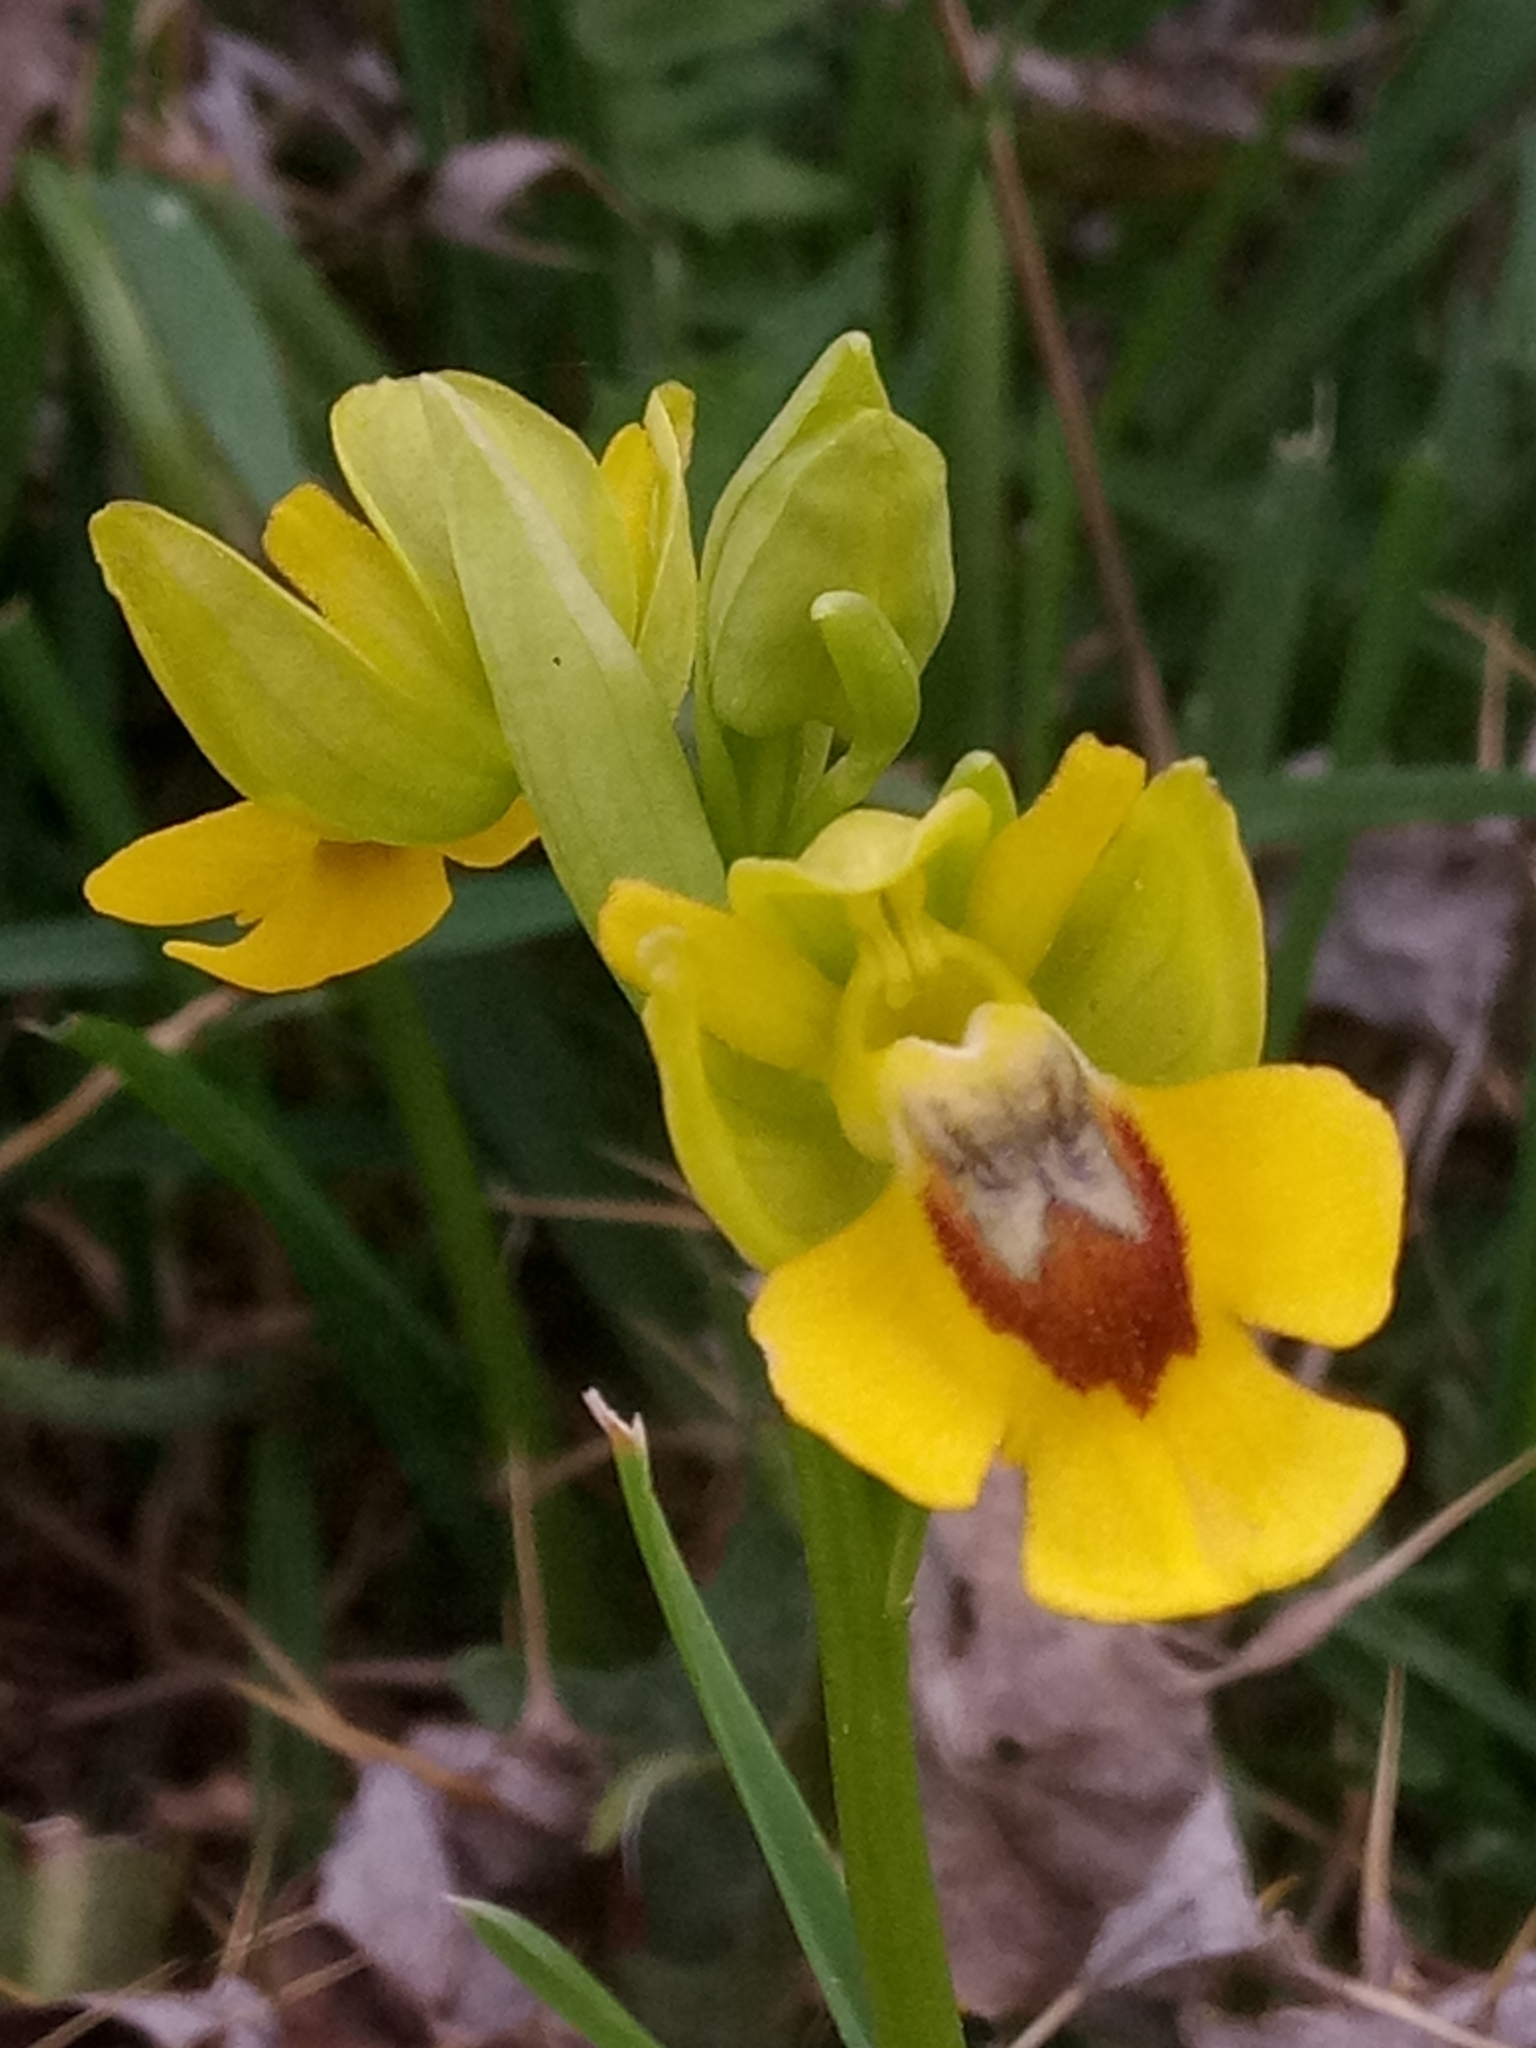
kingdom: Plantae
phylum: Tracheophyta
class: Liliopsida
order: Asparagales
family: Orchidaceae
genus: Ophrys
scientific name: Ophrys lutea
